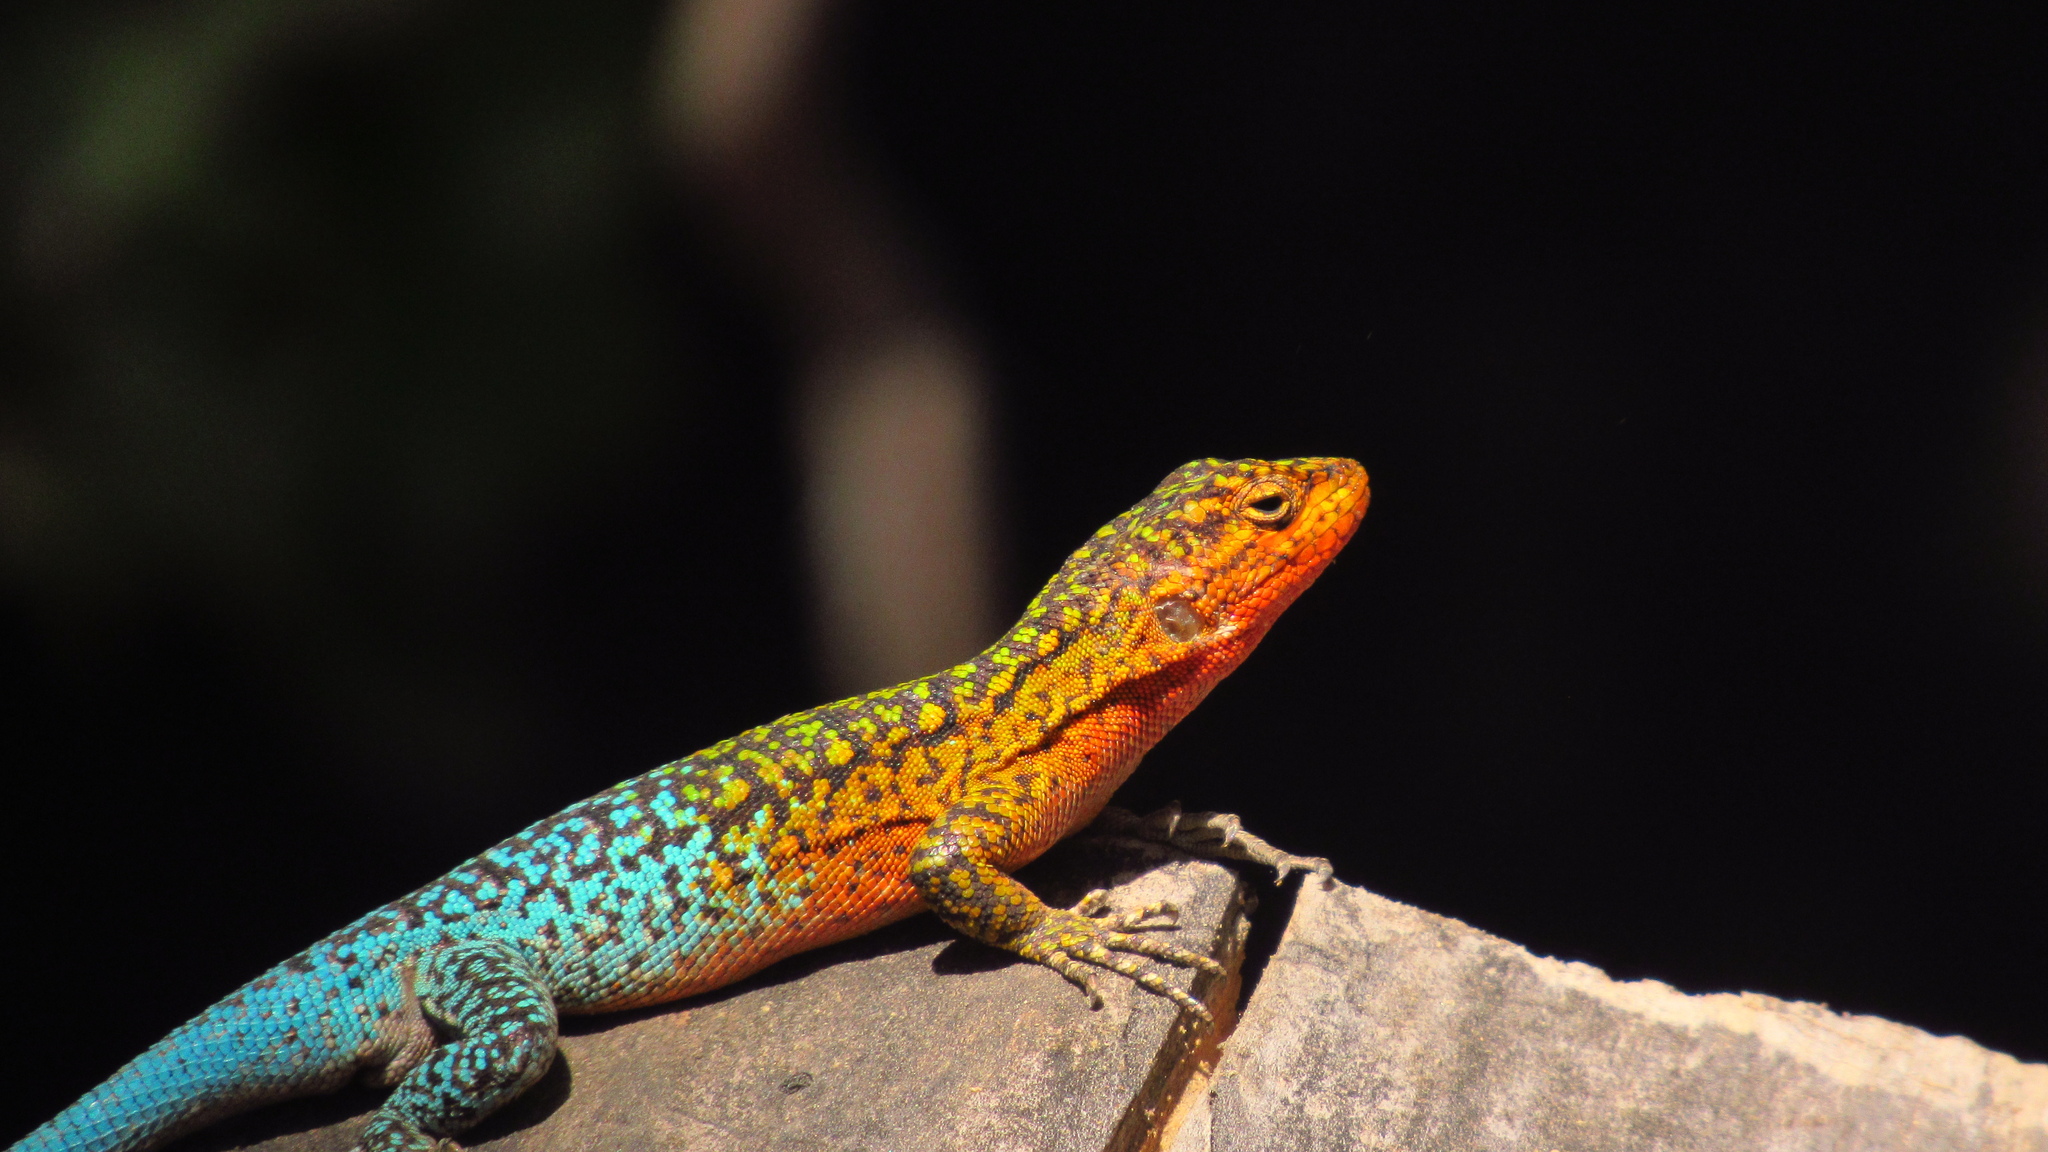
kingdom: Animalia
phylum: Chordata
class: Squamata
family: Liolaemidae
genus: Liolaemus
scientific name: Liolaemus tenuis
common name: Thin tree iguana
